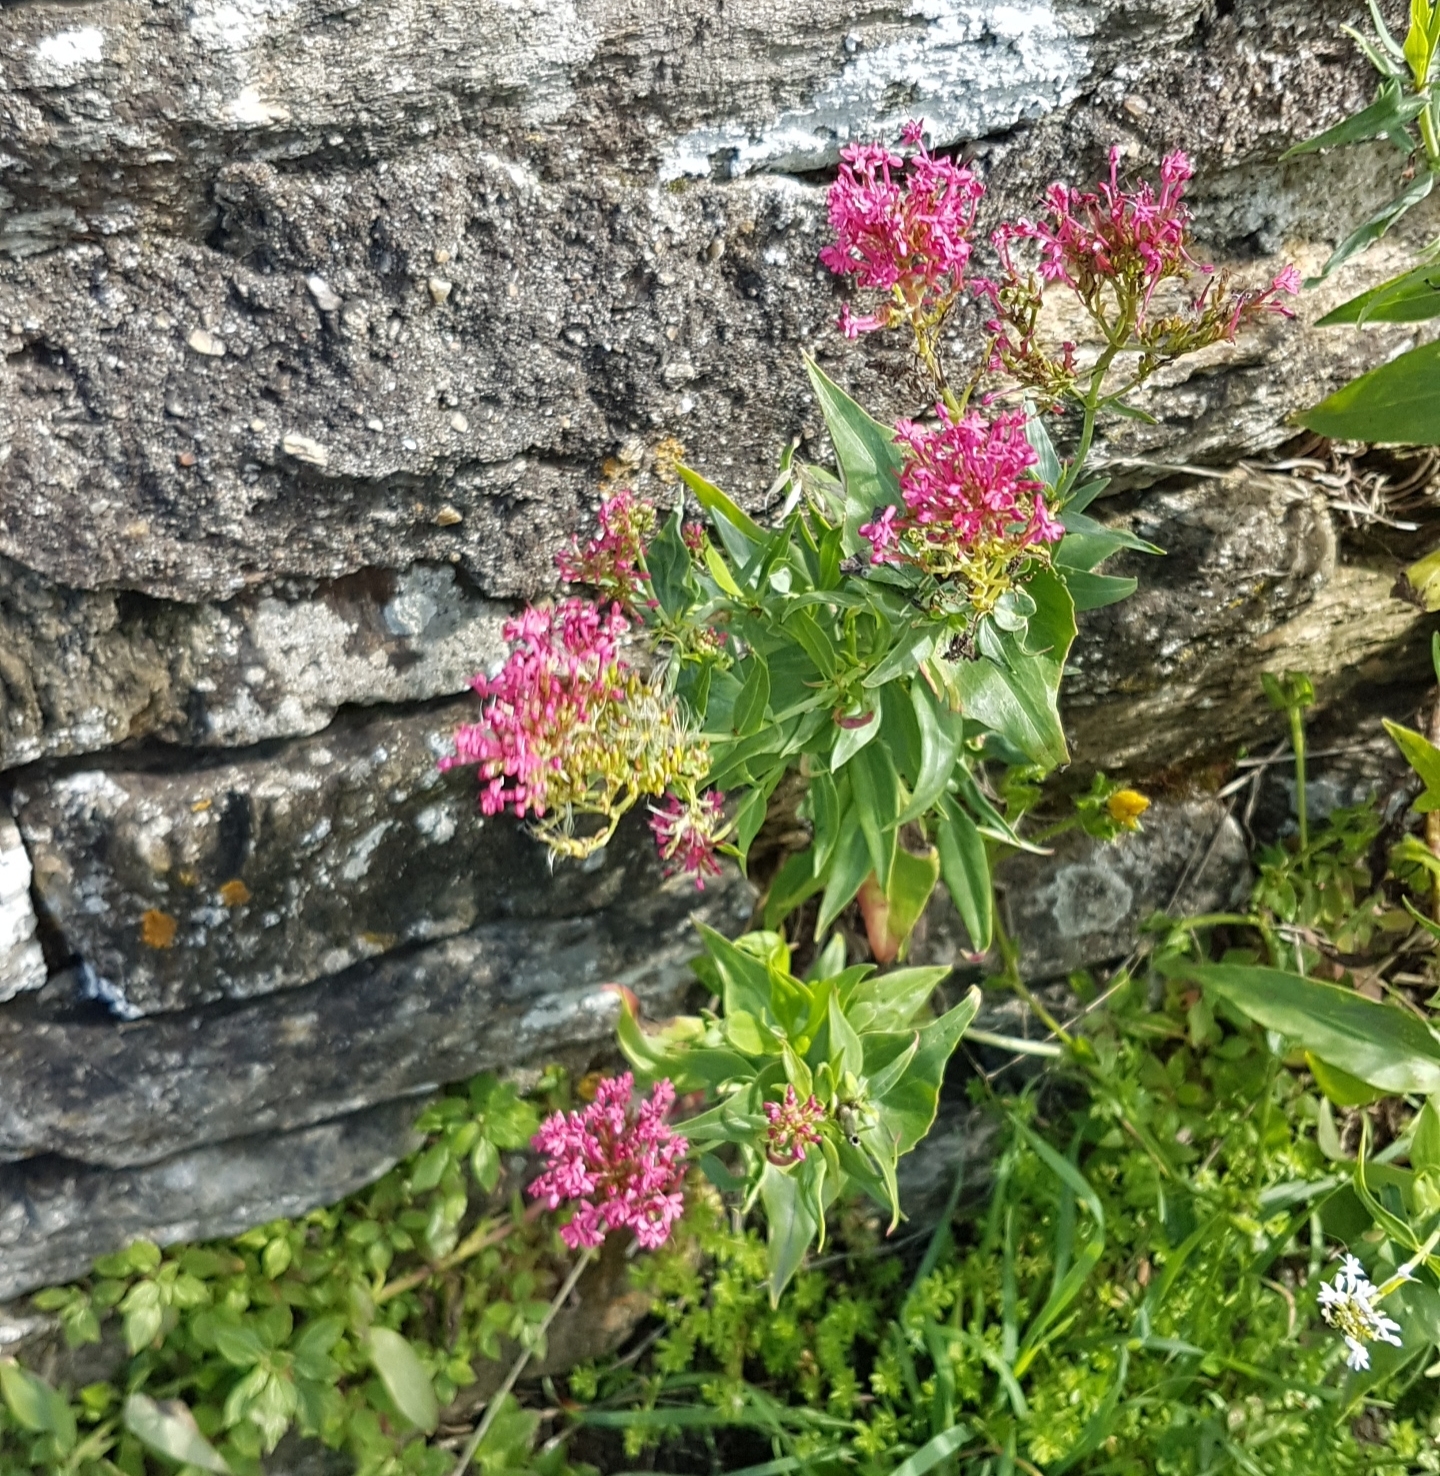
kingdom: Plantae
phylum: Tracheophyta
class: Magnoliopsida
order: Dipsacales
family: Caprifoliaceae
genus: Centranthus
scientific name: Centranthus ruber
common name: Red valerian
